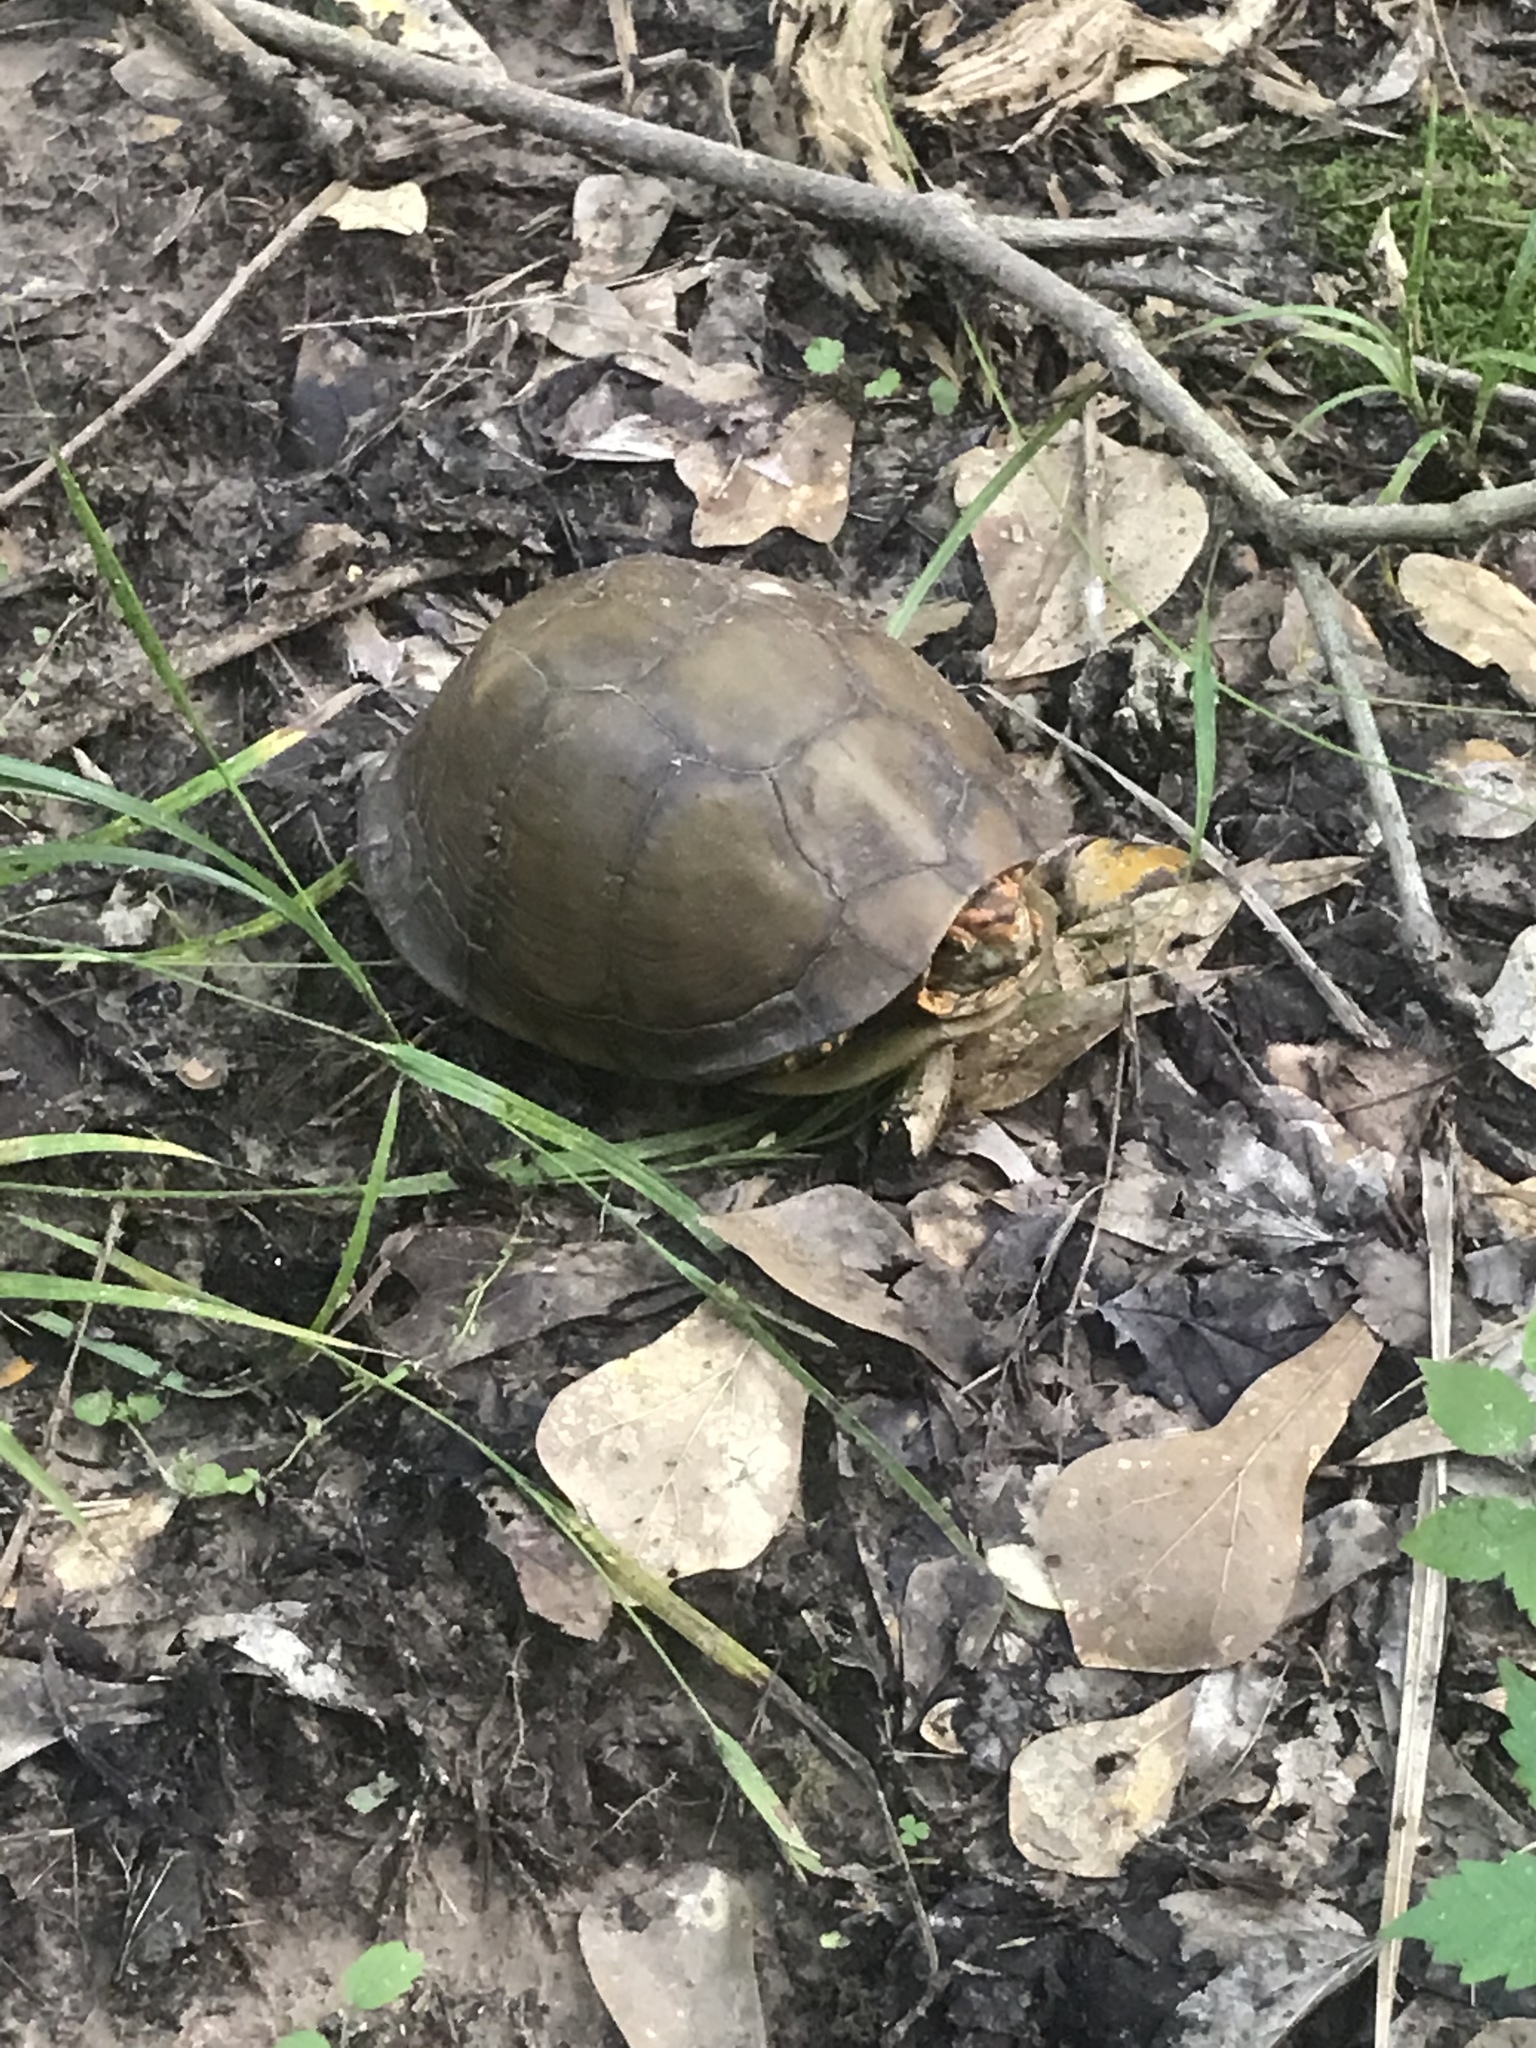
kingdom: Animalia
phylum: Chordata
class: Testudines
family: Emydidae
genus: Terrapene
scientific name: Terrapene carolina
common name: Common box turtle
